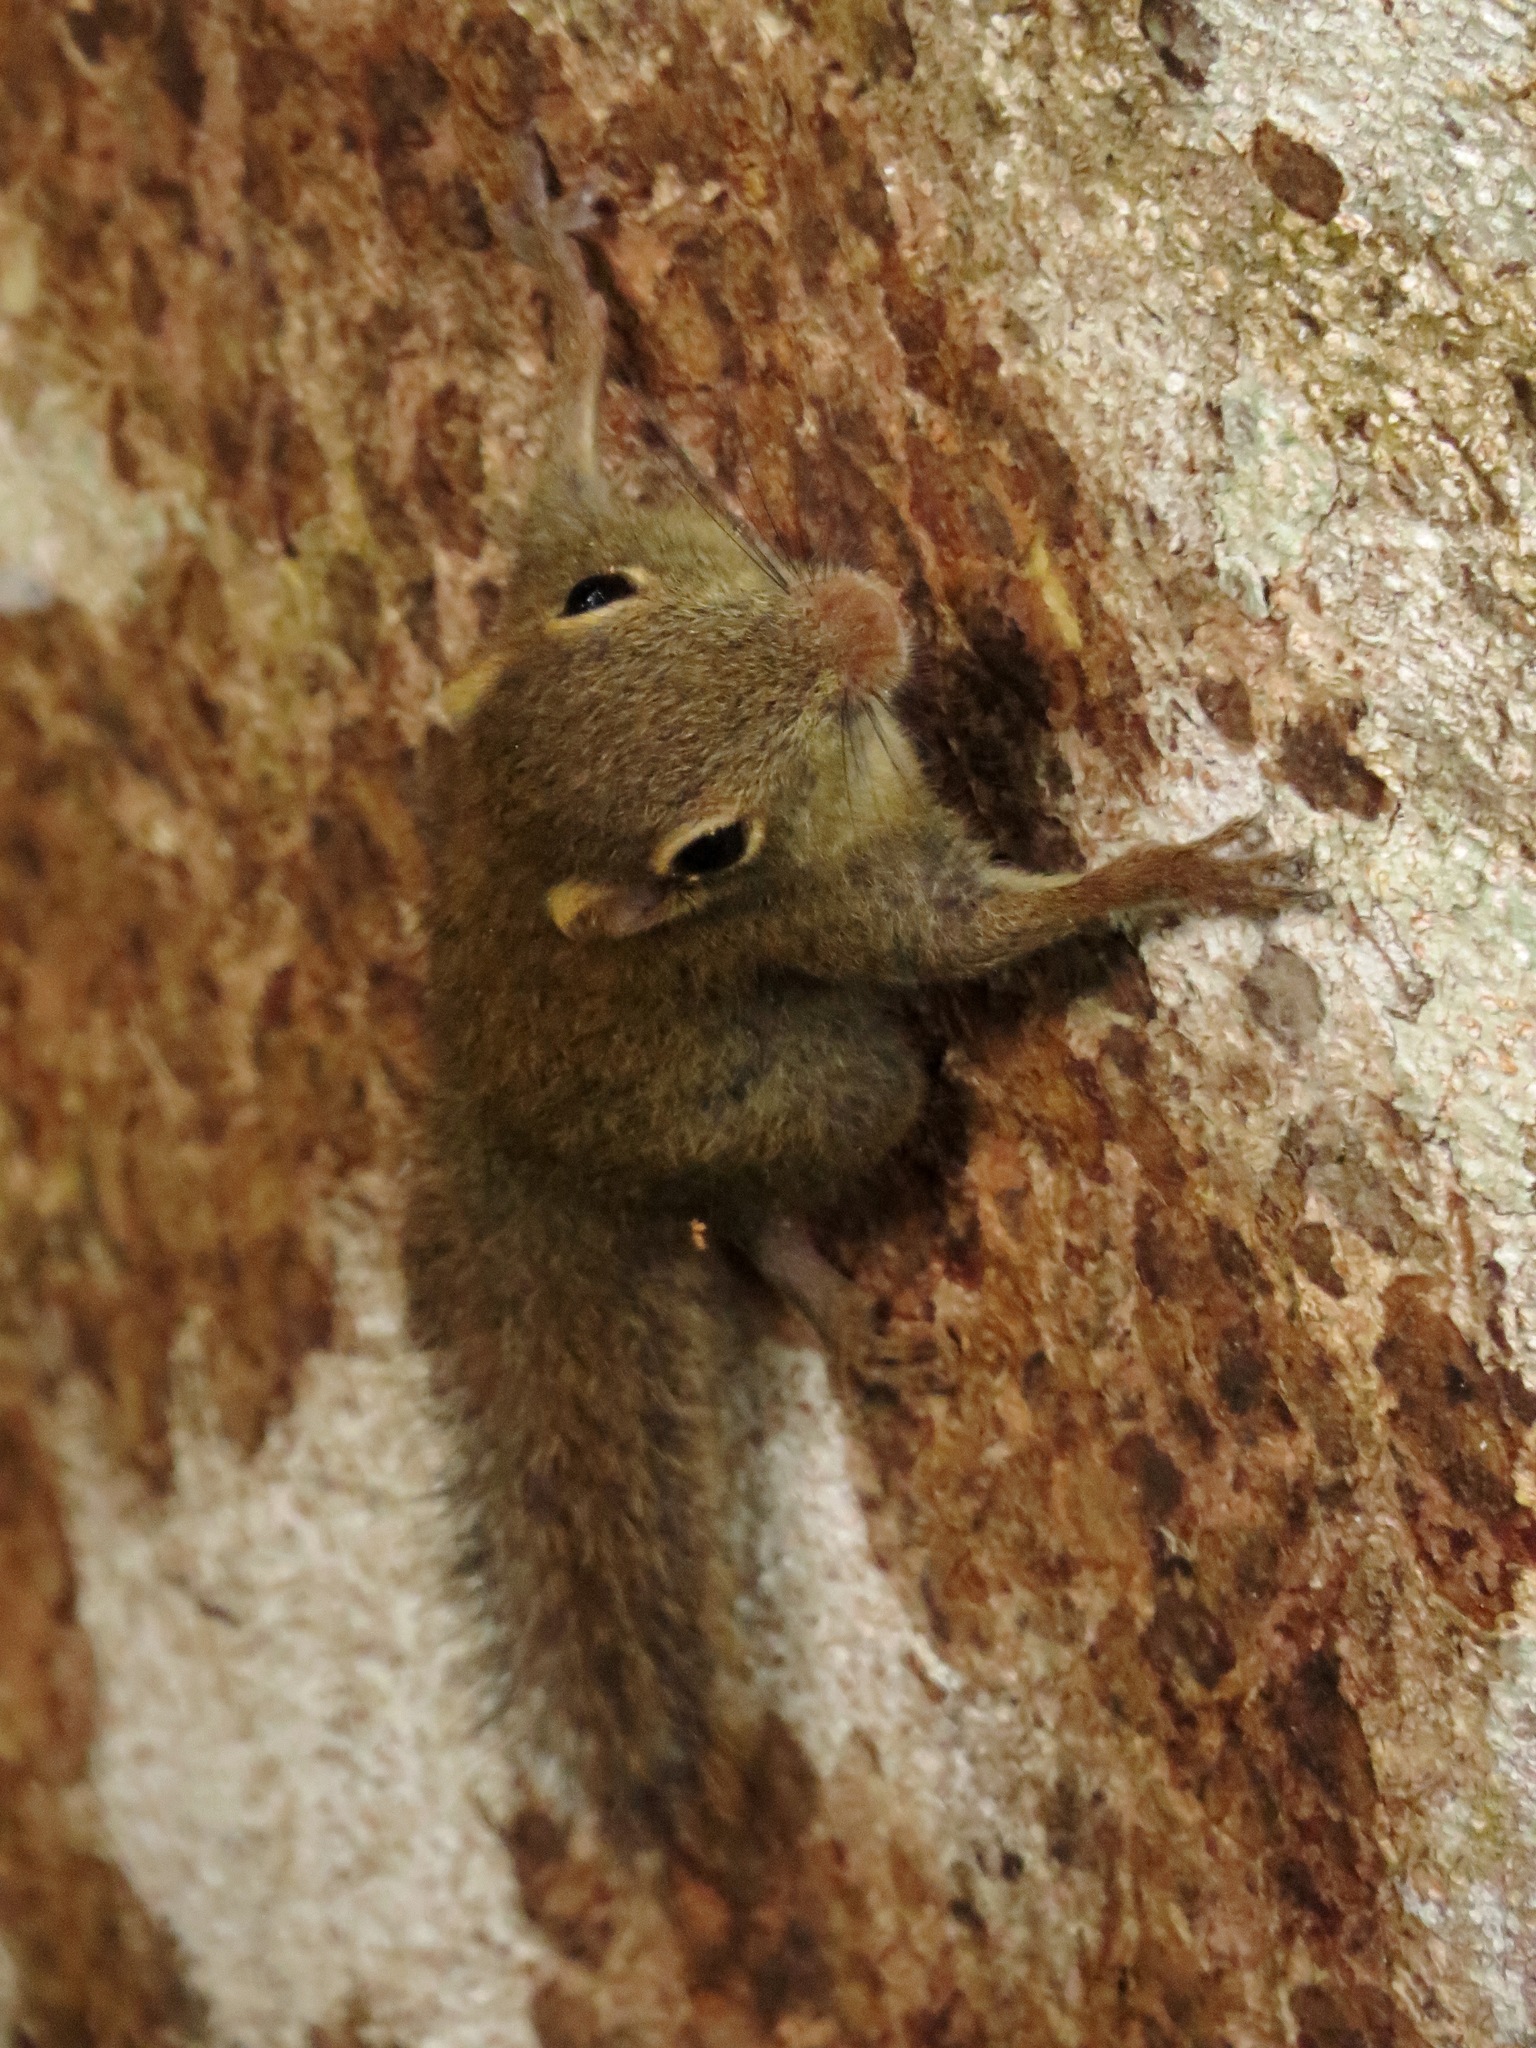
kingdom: Animalia
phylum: Chordata
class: Mammalia
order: Rodentia
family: Sciuridae
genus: Exilisciurus
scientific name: Exilisciurus exilis
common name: Least pygmy squirrel
